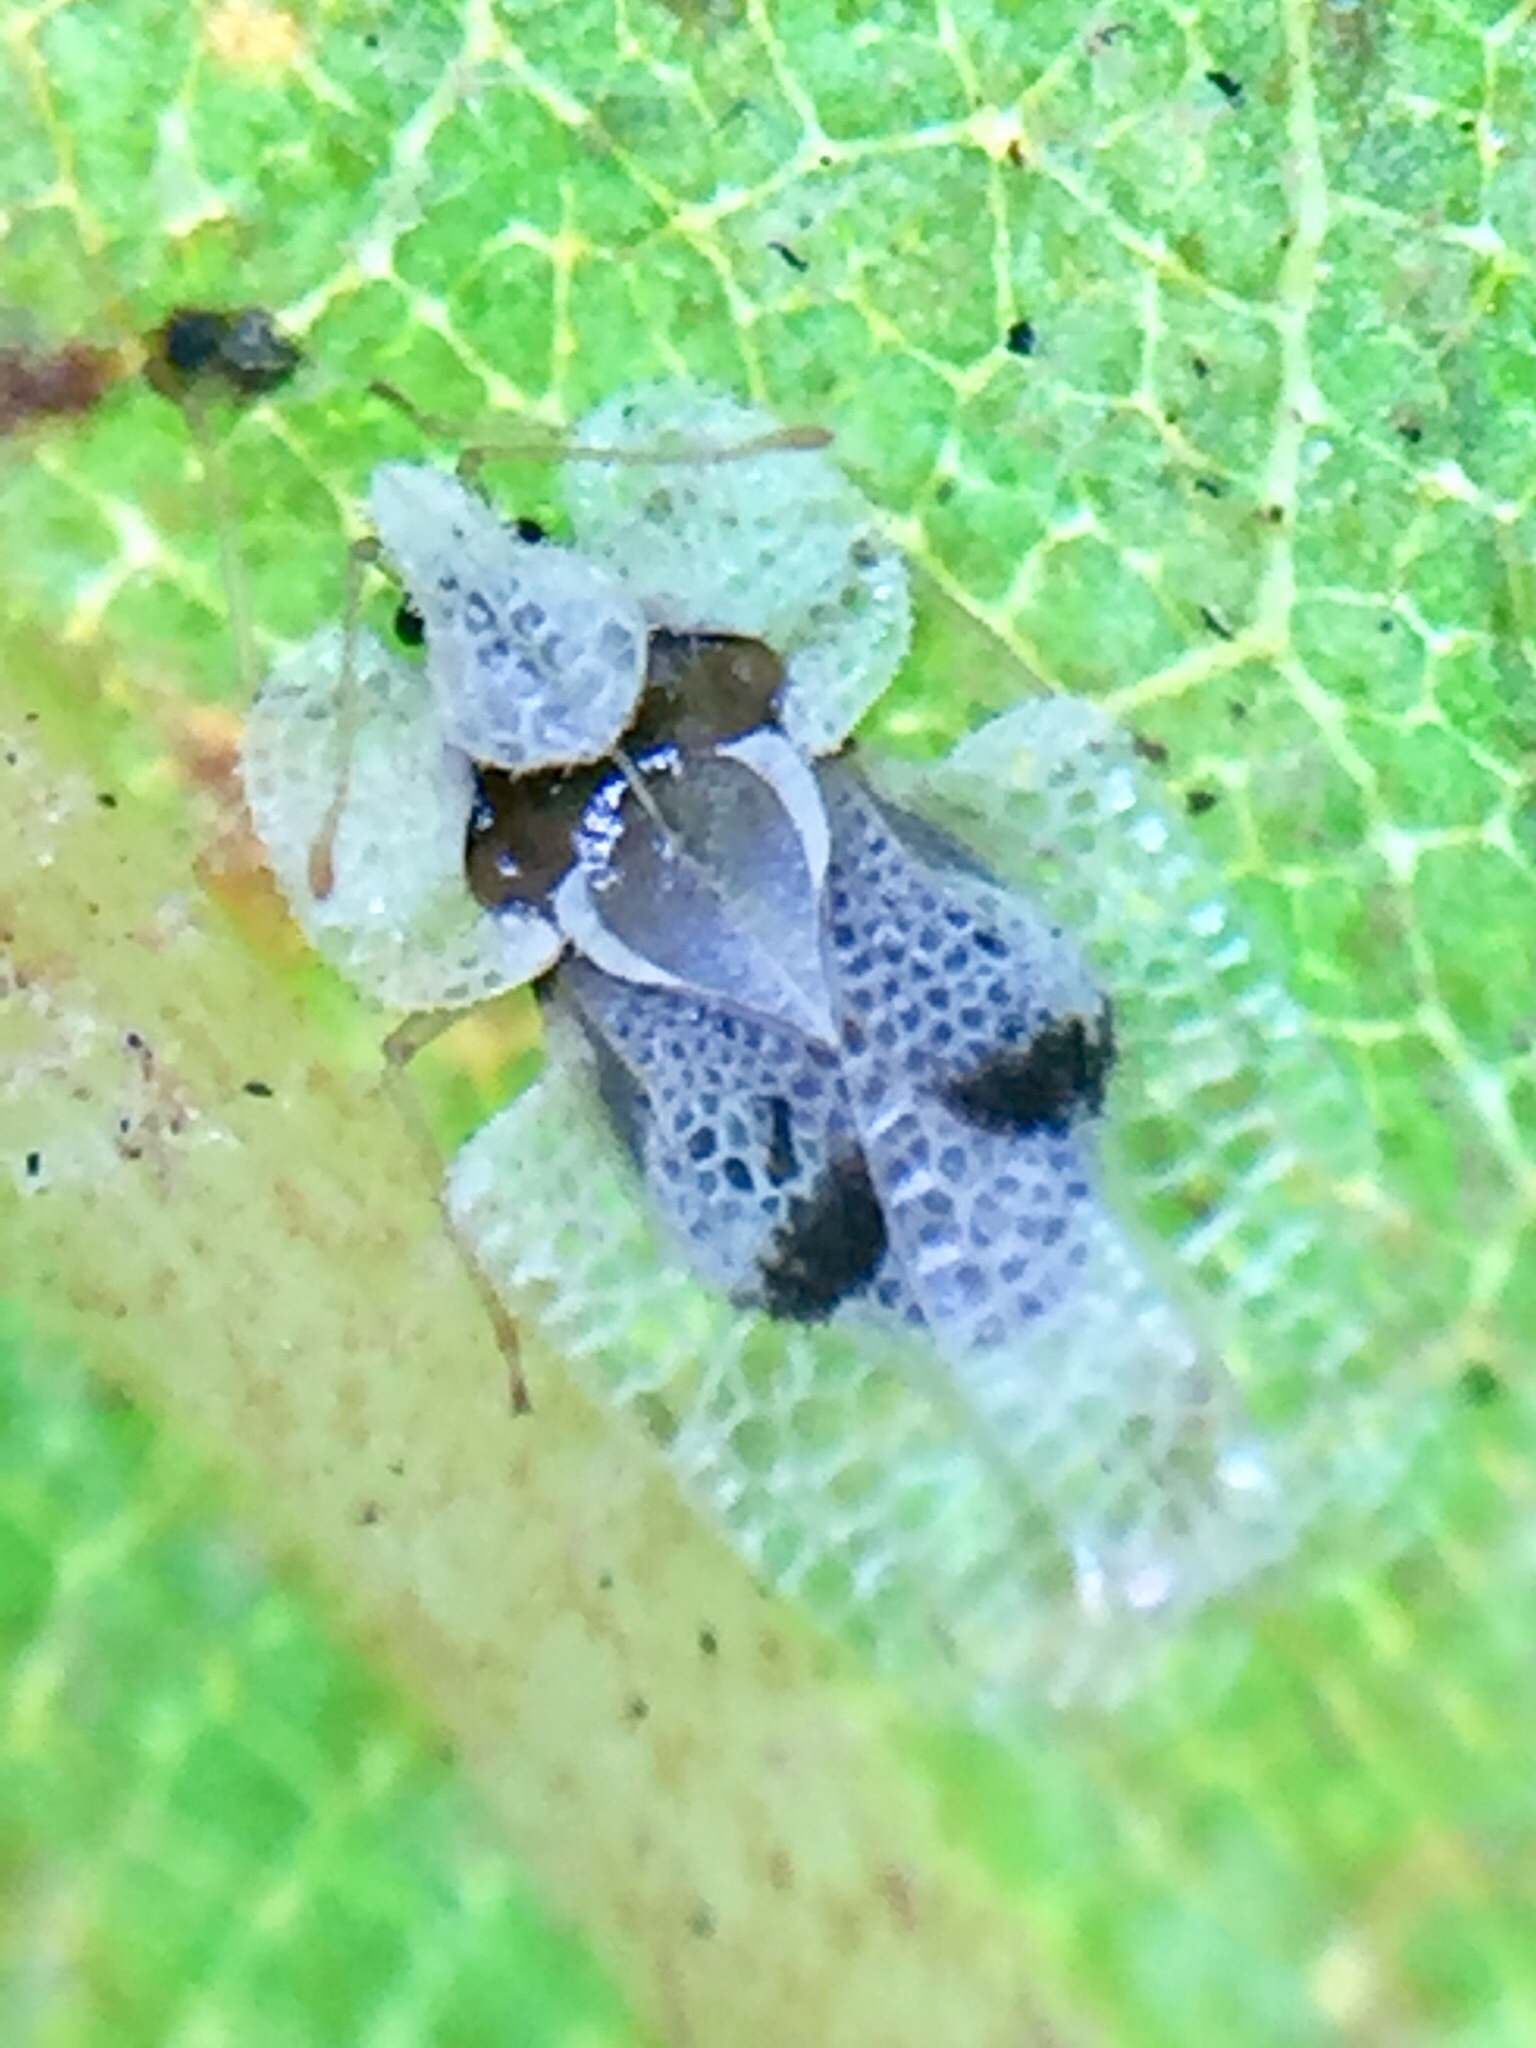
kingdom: Animalia
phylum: Arthropoda
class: Insecta
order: Hemiptera
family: Tingidae
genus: Corythucha
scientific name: Corythucha ciliata
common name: Sycamore lace bug
